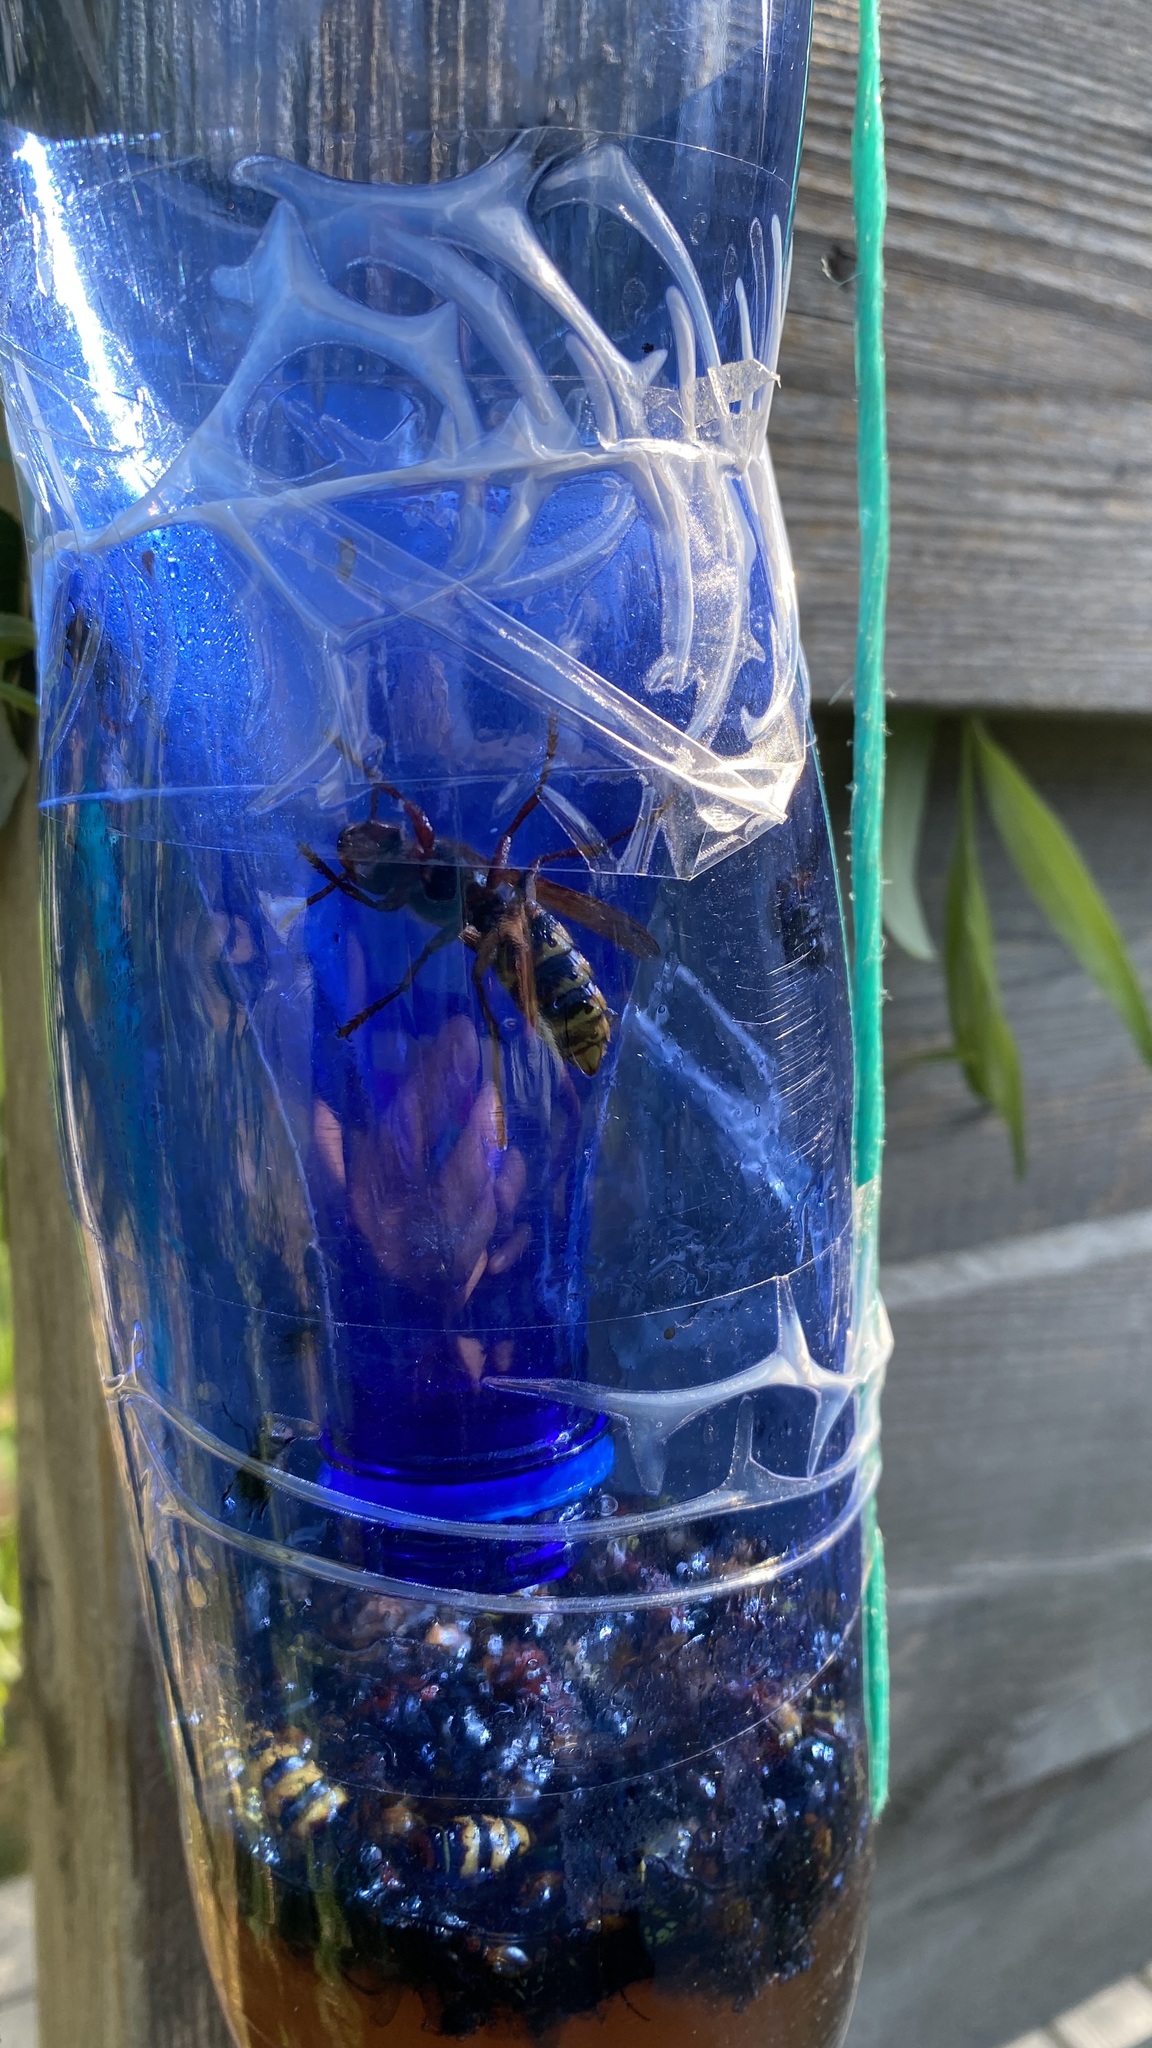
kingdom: Animalia
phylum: Arthropoda
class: Insecta
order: Hymenoptera
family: Vespidae
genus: Vespa
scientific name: Vespa crabro
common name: Hornet
